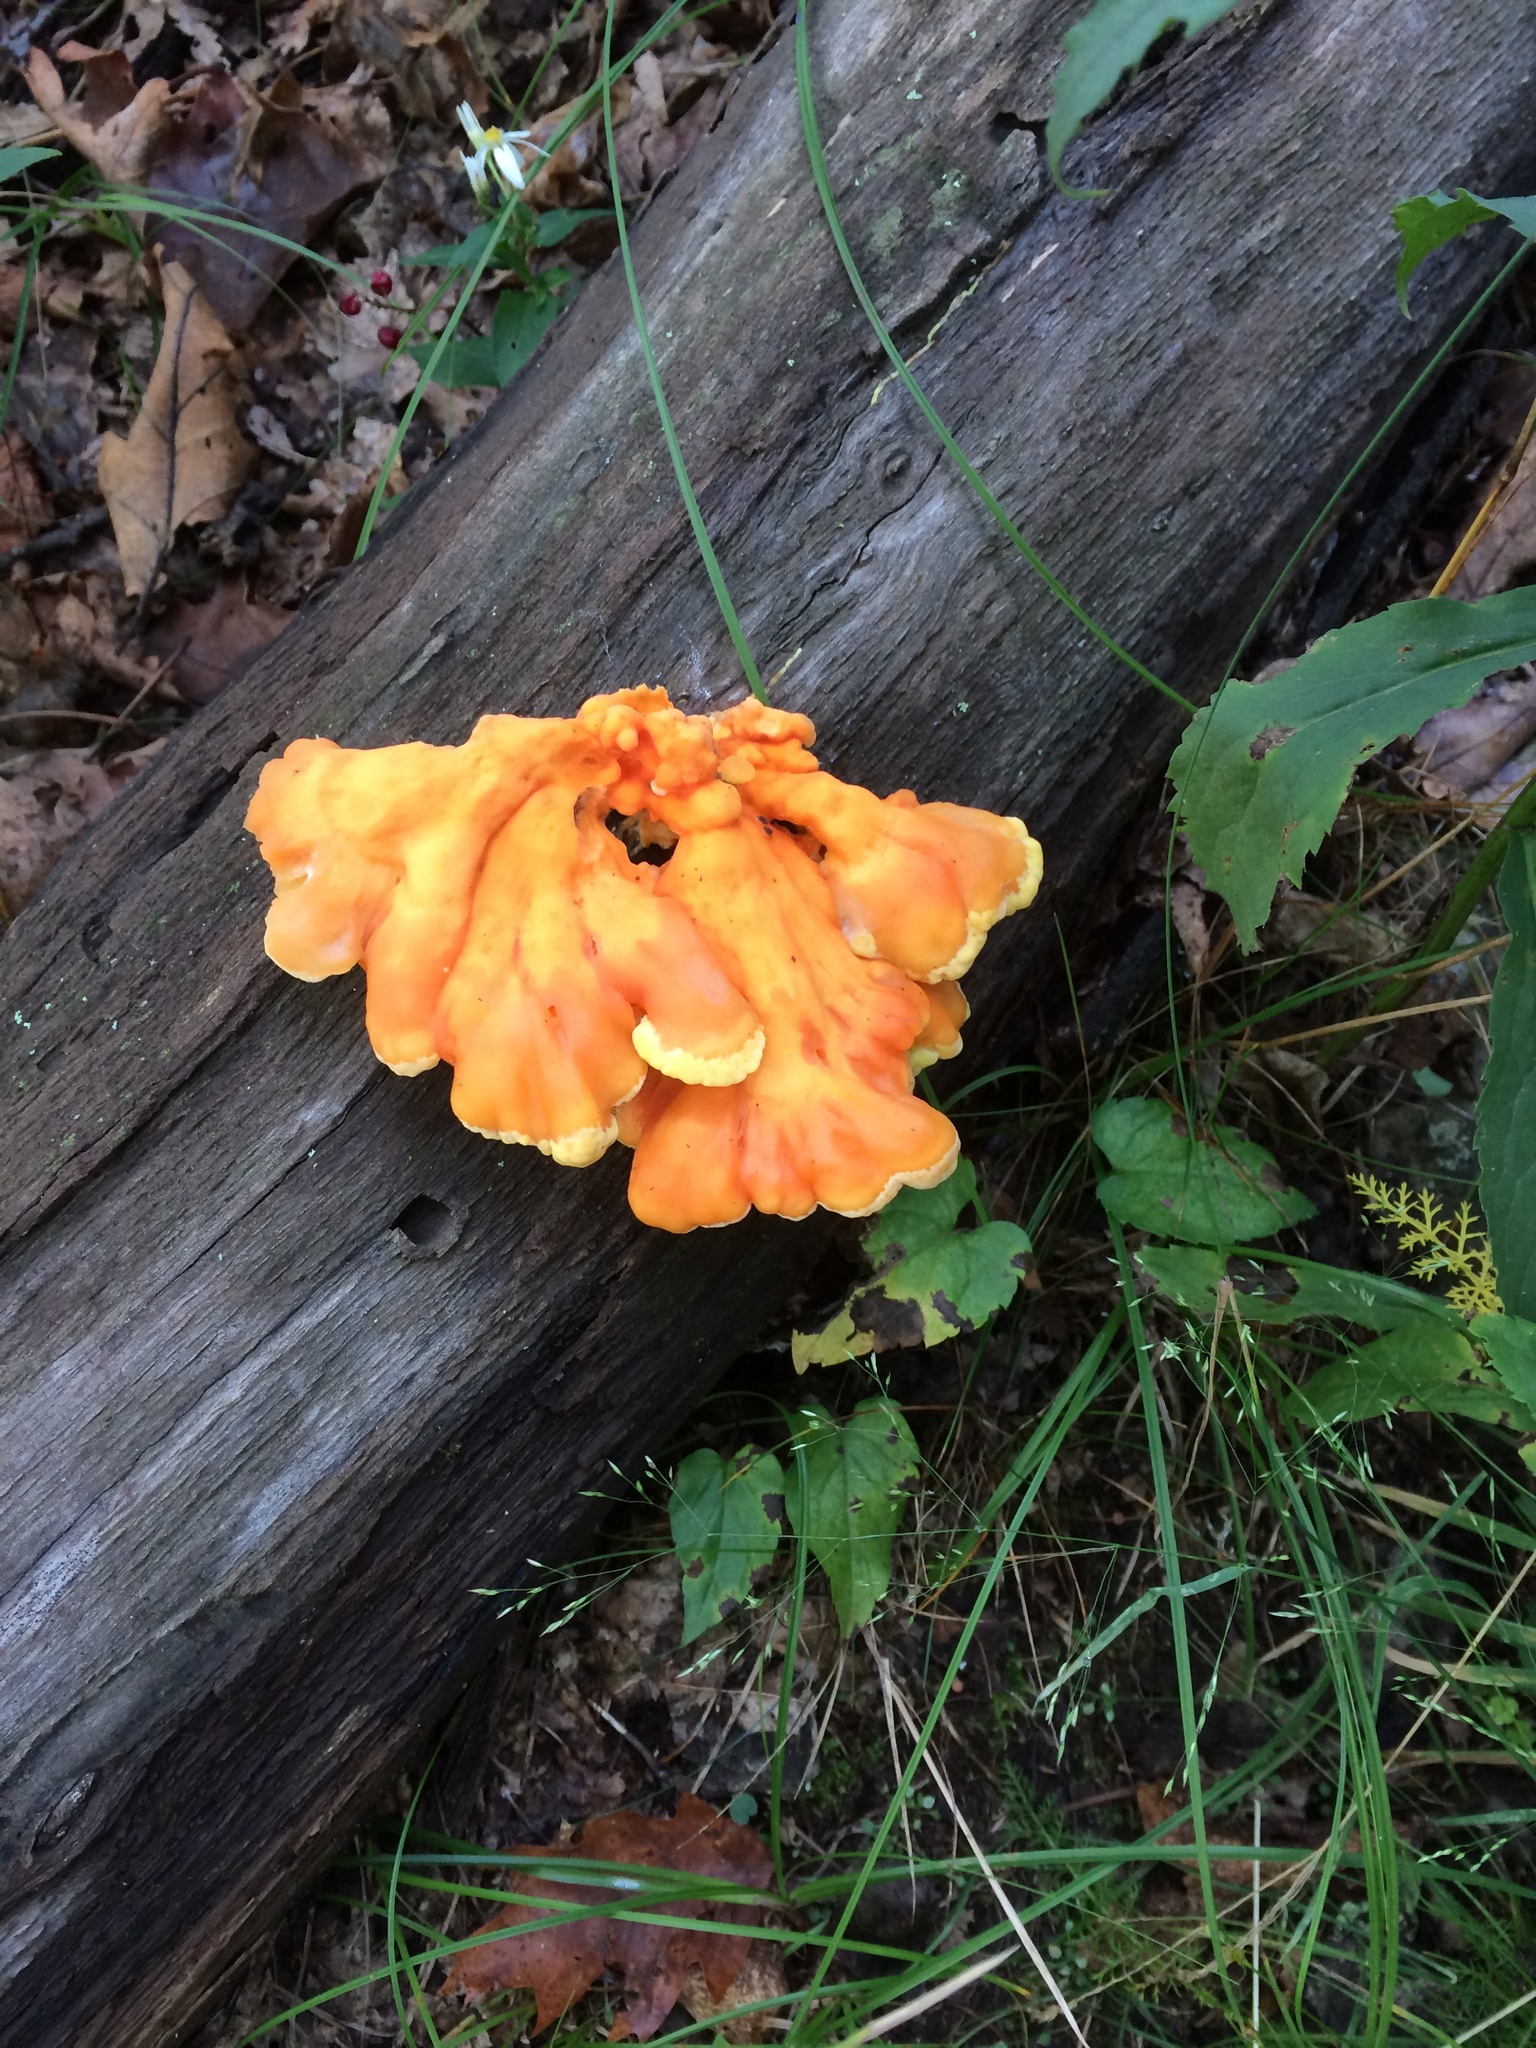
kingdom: Fungi
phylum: Basidiomycota
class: Agaricomycetes
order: Polyporales
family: Laetiporaceae
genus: Laetiporus
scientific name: Laetiporus sulphureus
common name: Chicken of the woods
